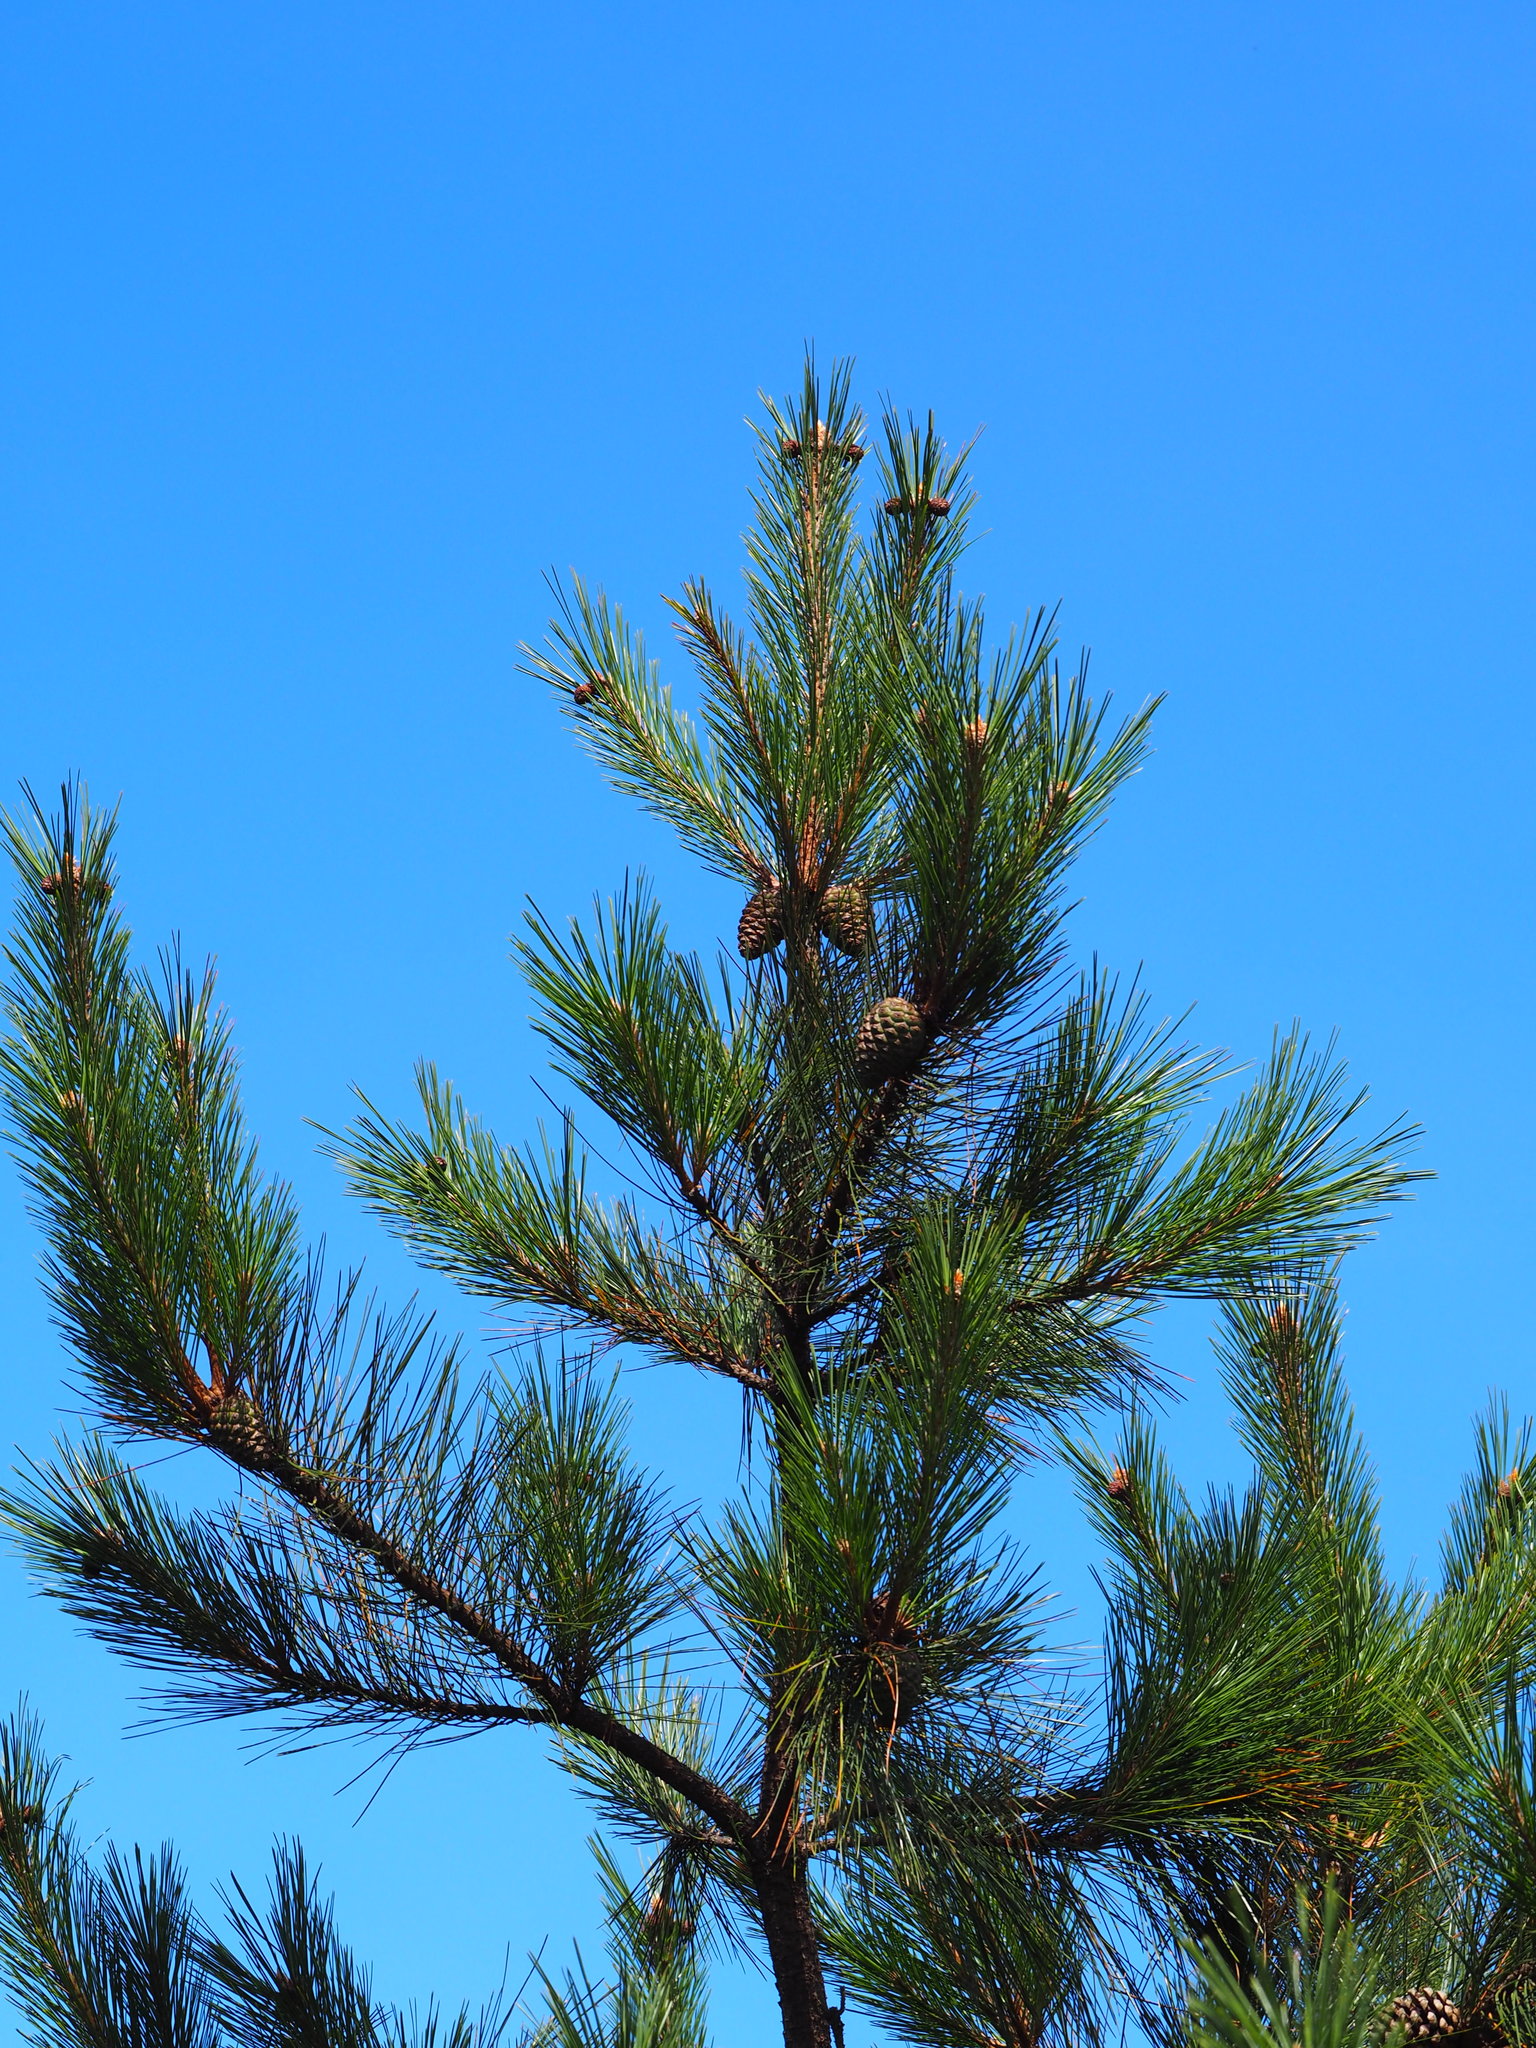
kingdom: Plantae
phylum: Tracheophyta
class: Pinopsida
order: Pinales
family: Pinaceae
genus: Pinus
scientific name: Pinus taiwanensis
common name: Formosa pine
